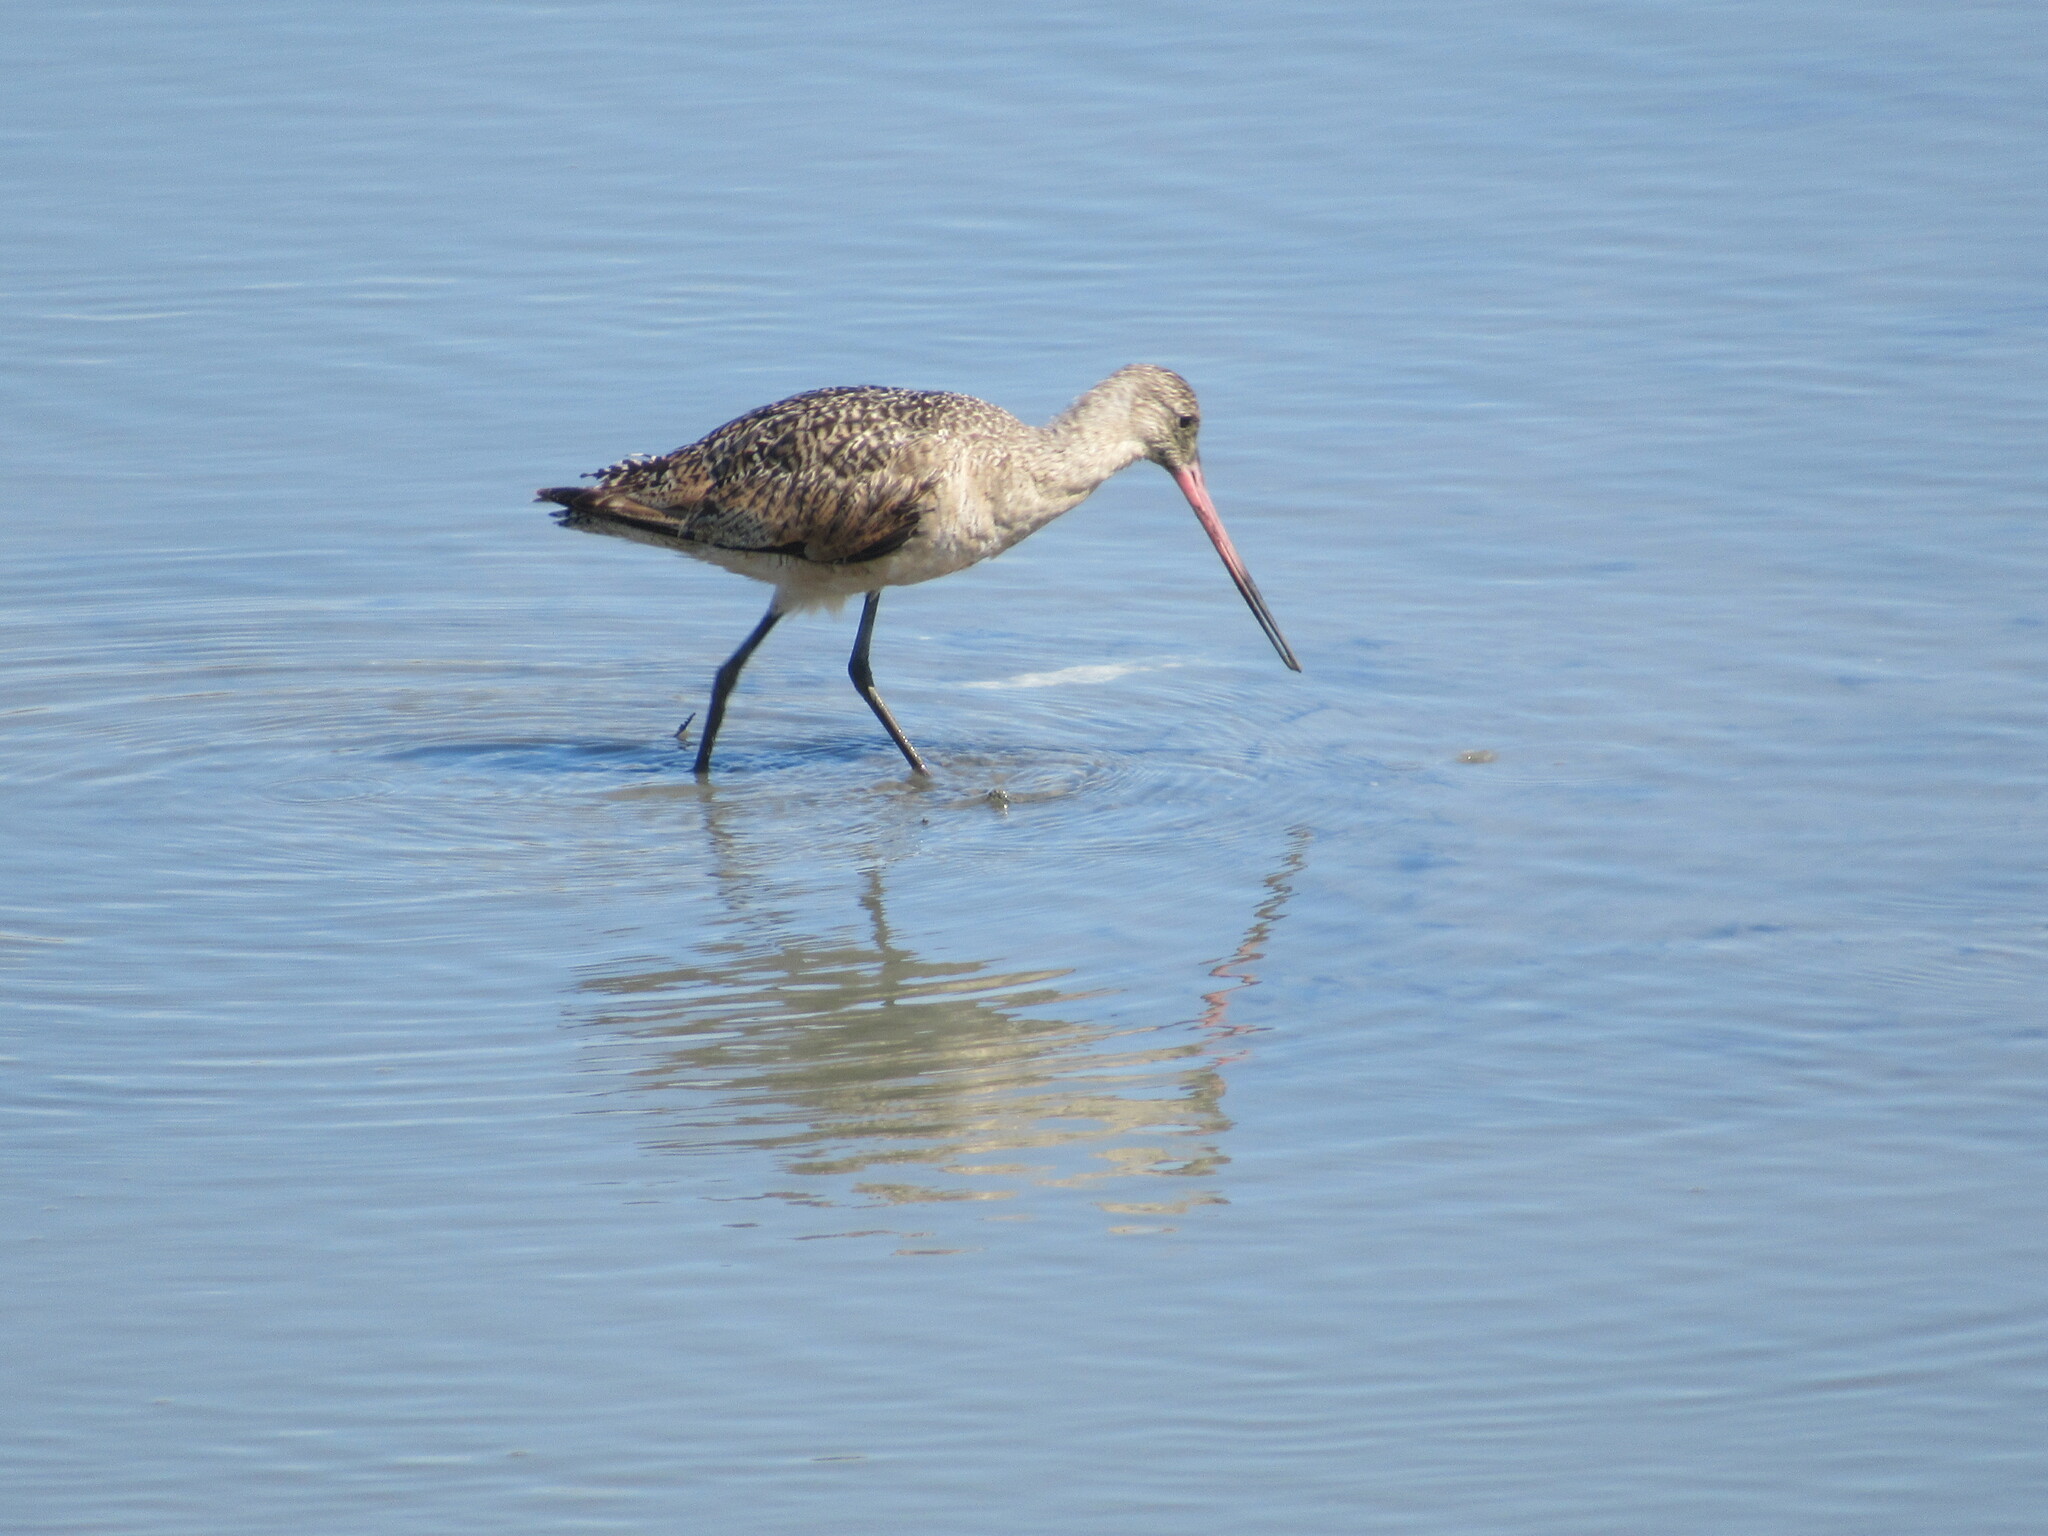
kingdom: Animalia
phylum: Chordata
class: Aves
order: Charadriiformes
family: Scolopacidae
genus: Limosa
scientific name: Limosa fedoa
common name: Marbled godwit
